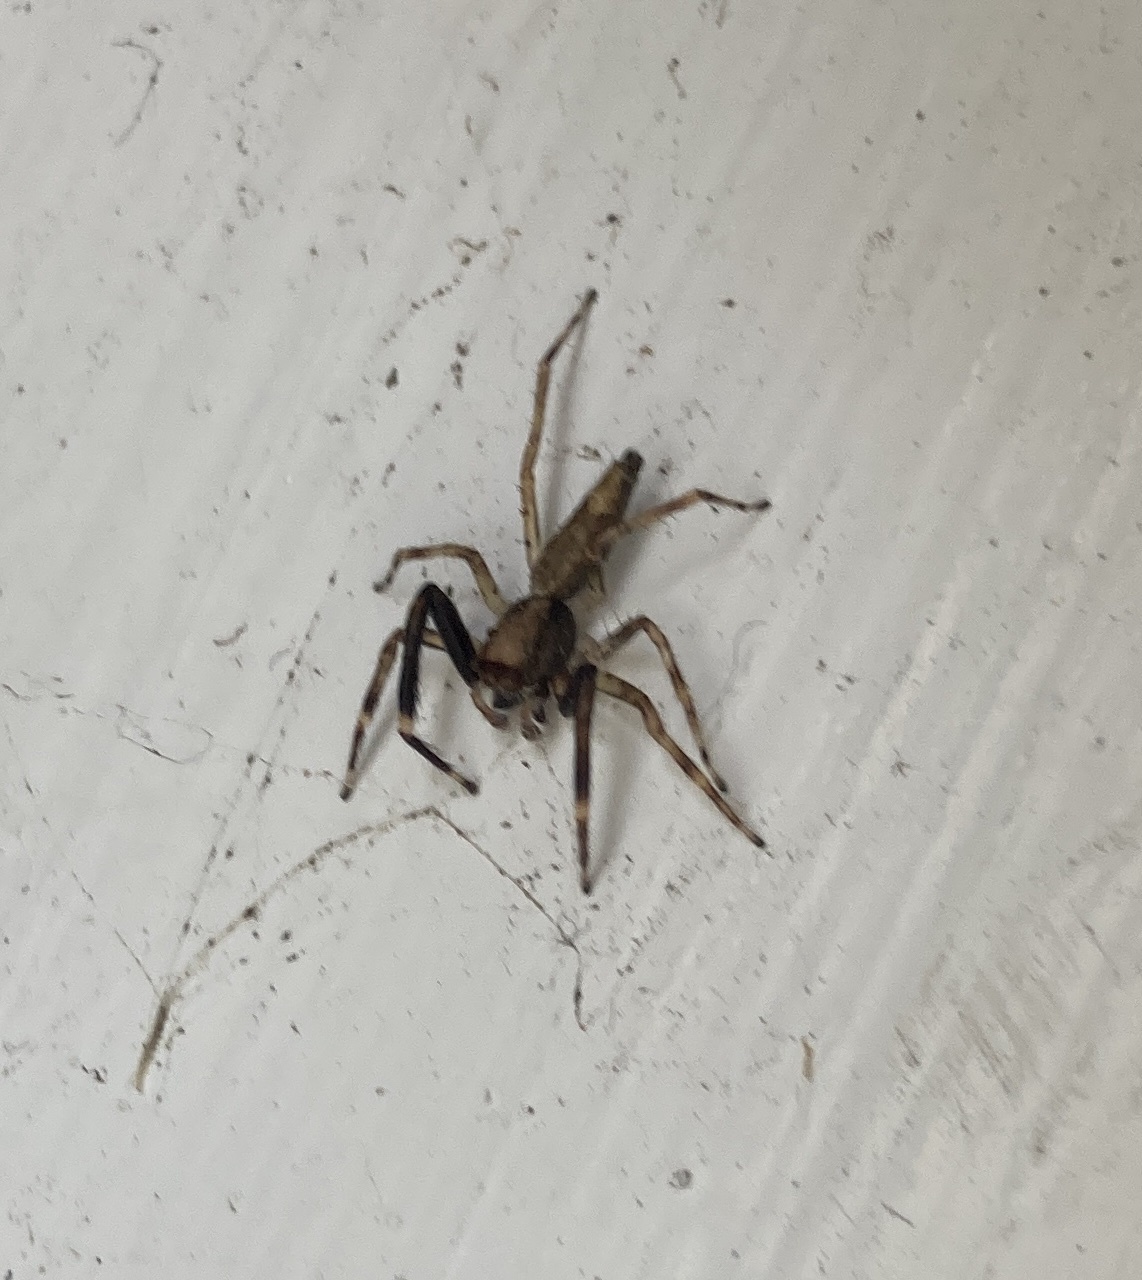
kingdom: Animalia
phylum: Arthropoda
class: Arachnida
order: Araneae
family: Salticidae
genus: Helpis
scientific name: Helpis minitabunda
